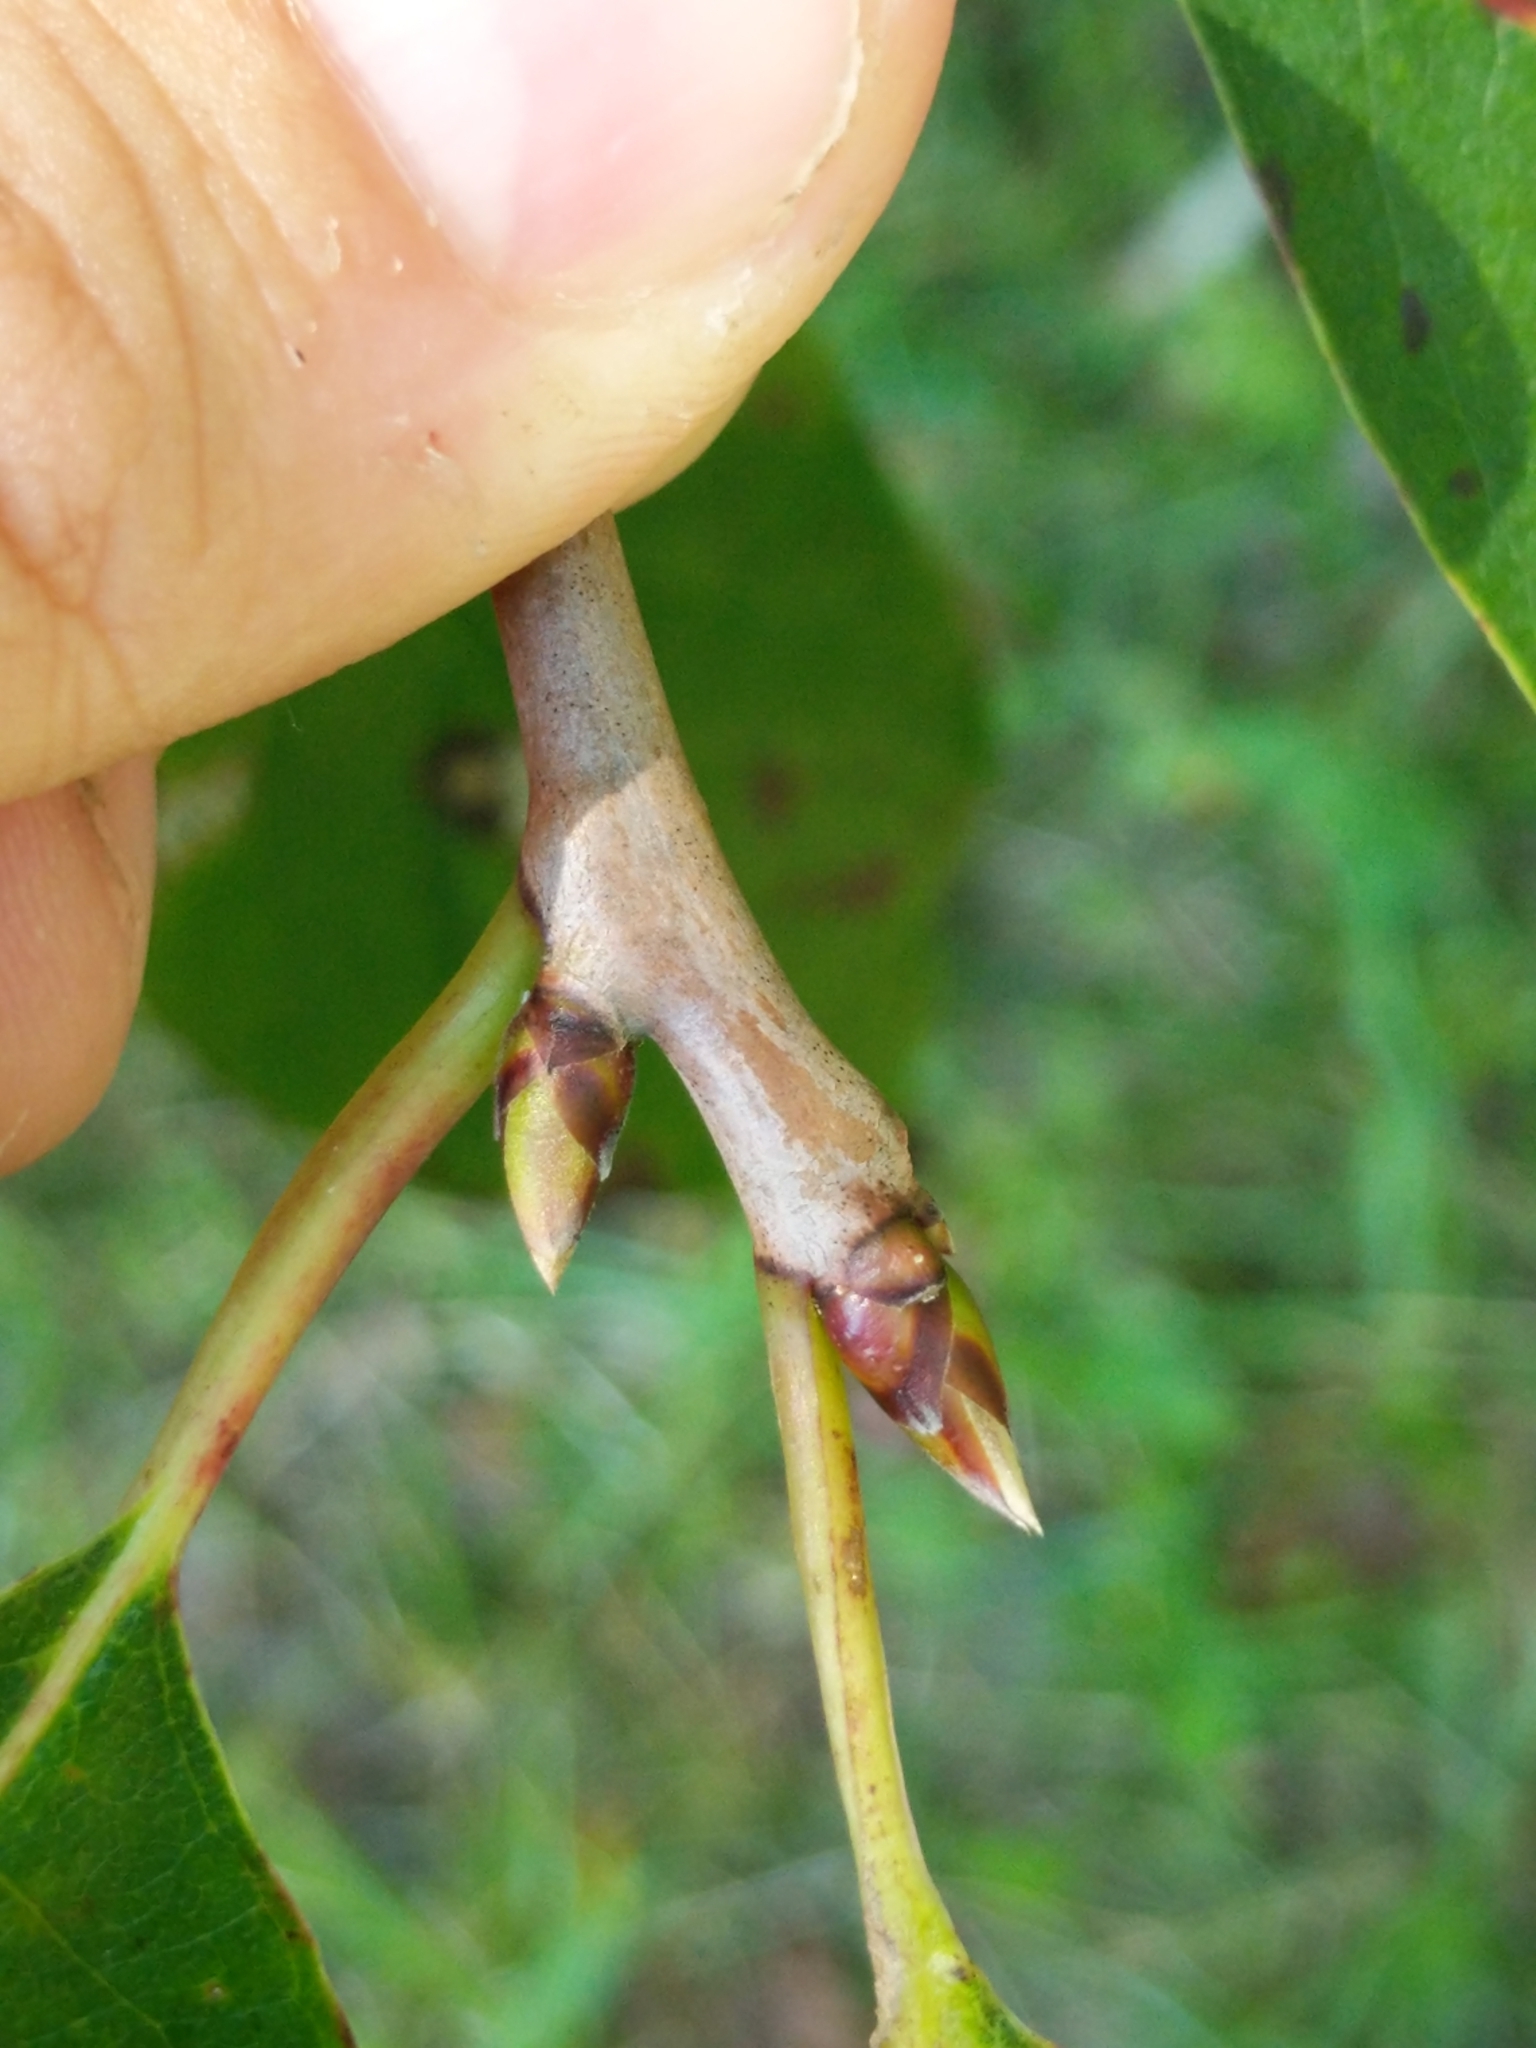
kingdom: Plantae
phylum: Tracheophyta
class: Magnoliopsida
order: Ericales
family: Ebenaceae
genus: Diospyros
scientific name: Diospyros virginiana
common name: Persimmon
